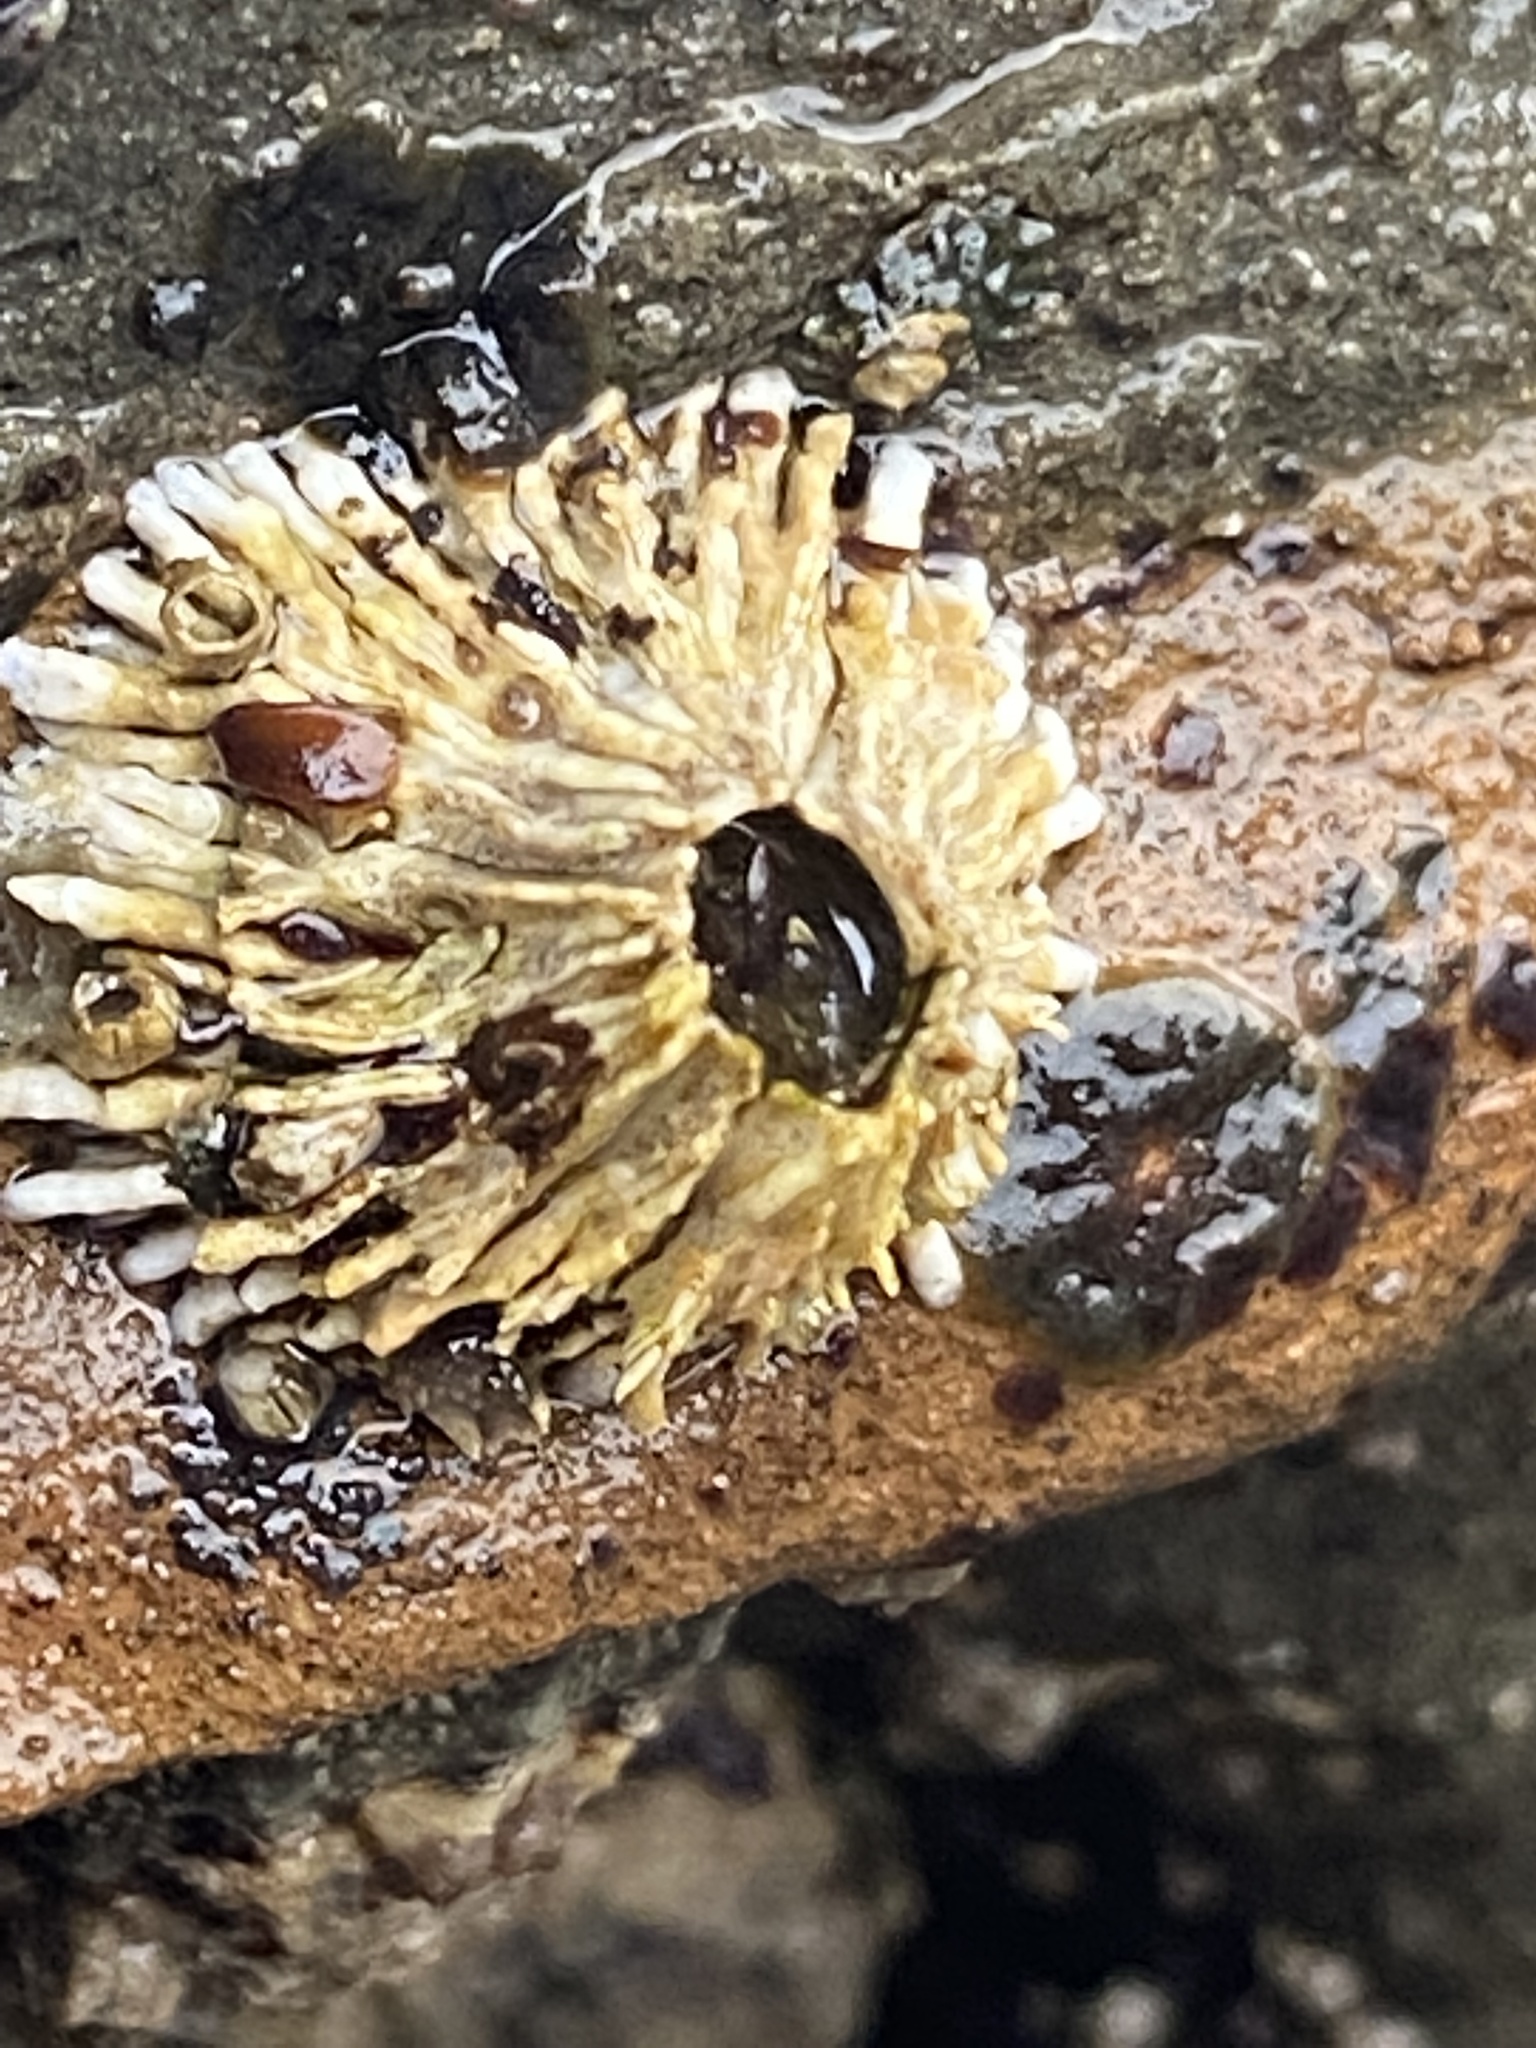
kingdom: Animalia
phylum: Arthropoda
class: Maxillopoda
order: Sessilia
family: Archaeobalanidae
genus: Semibalanus
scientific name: Semibalanus cariosus
